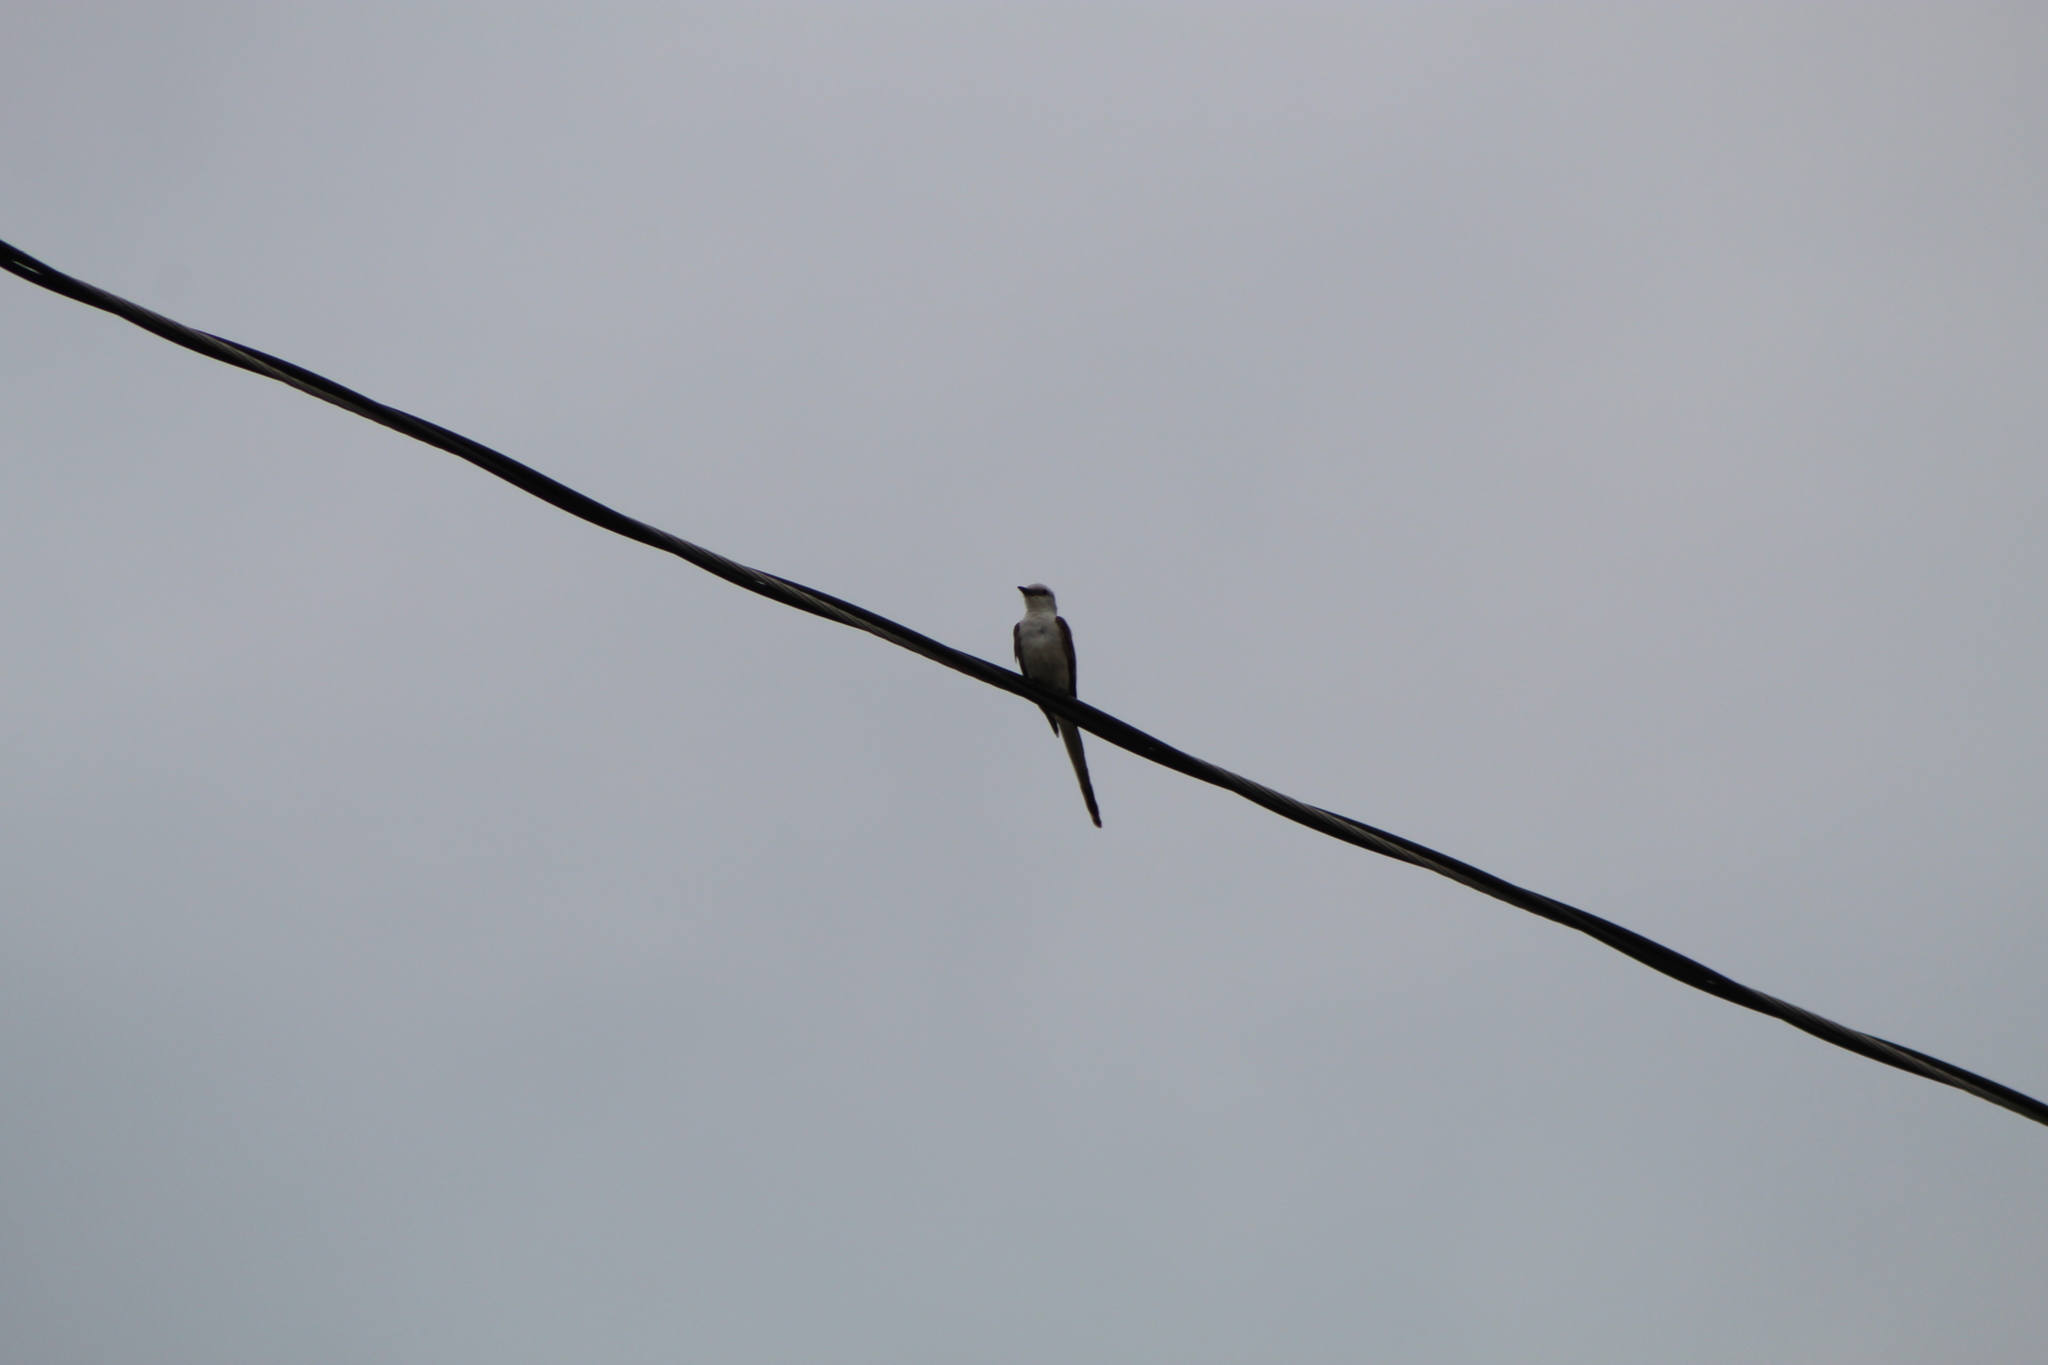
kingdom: Animalia
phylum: Chordata
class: Aves
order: Passeriformes
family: Tyrannidae
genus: Tyrannus
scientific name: Tyrannus forficatus
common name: Scissor-tailed flycatcher
